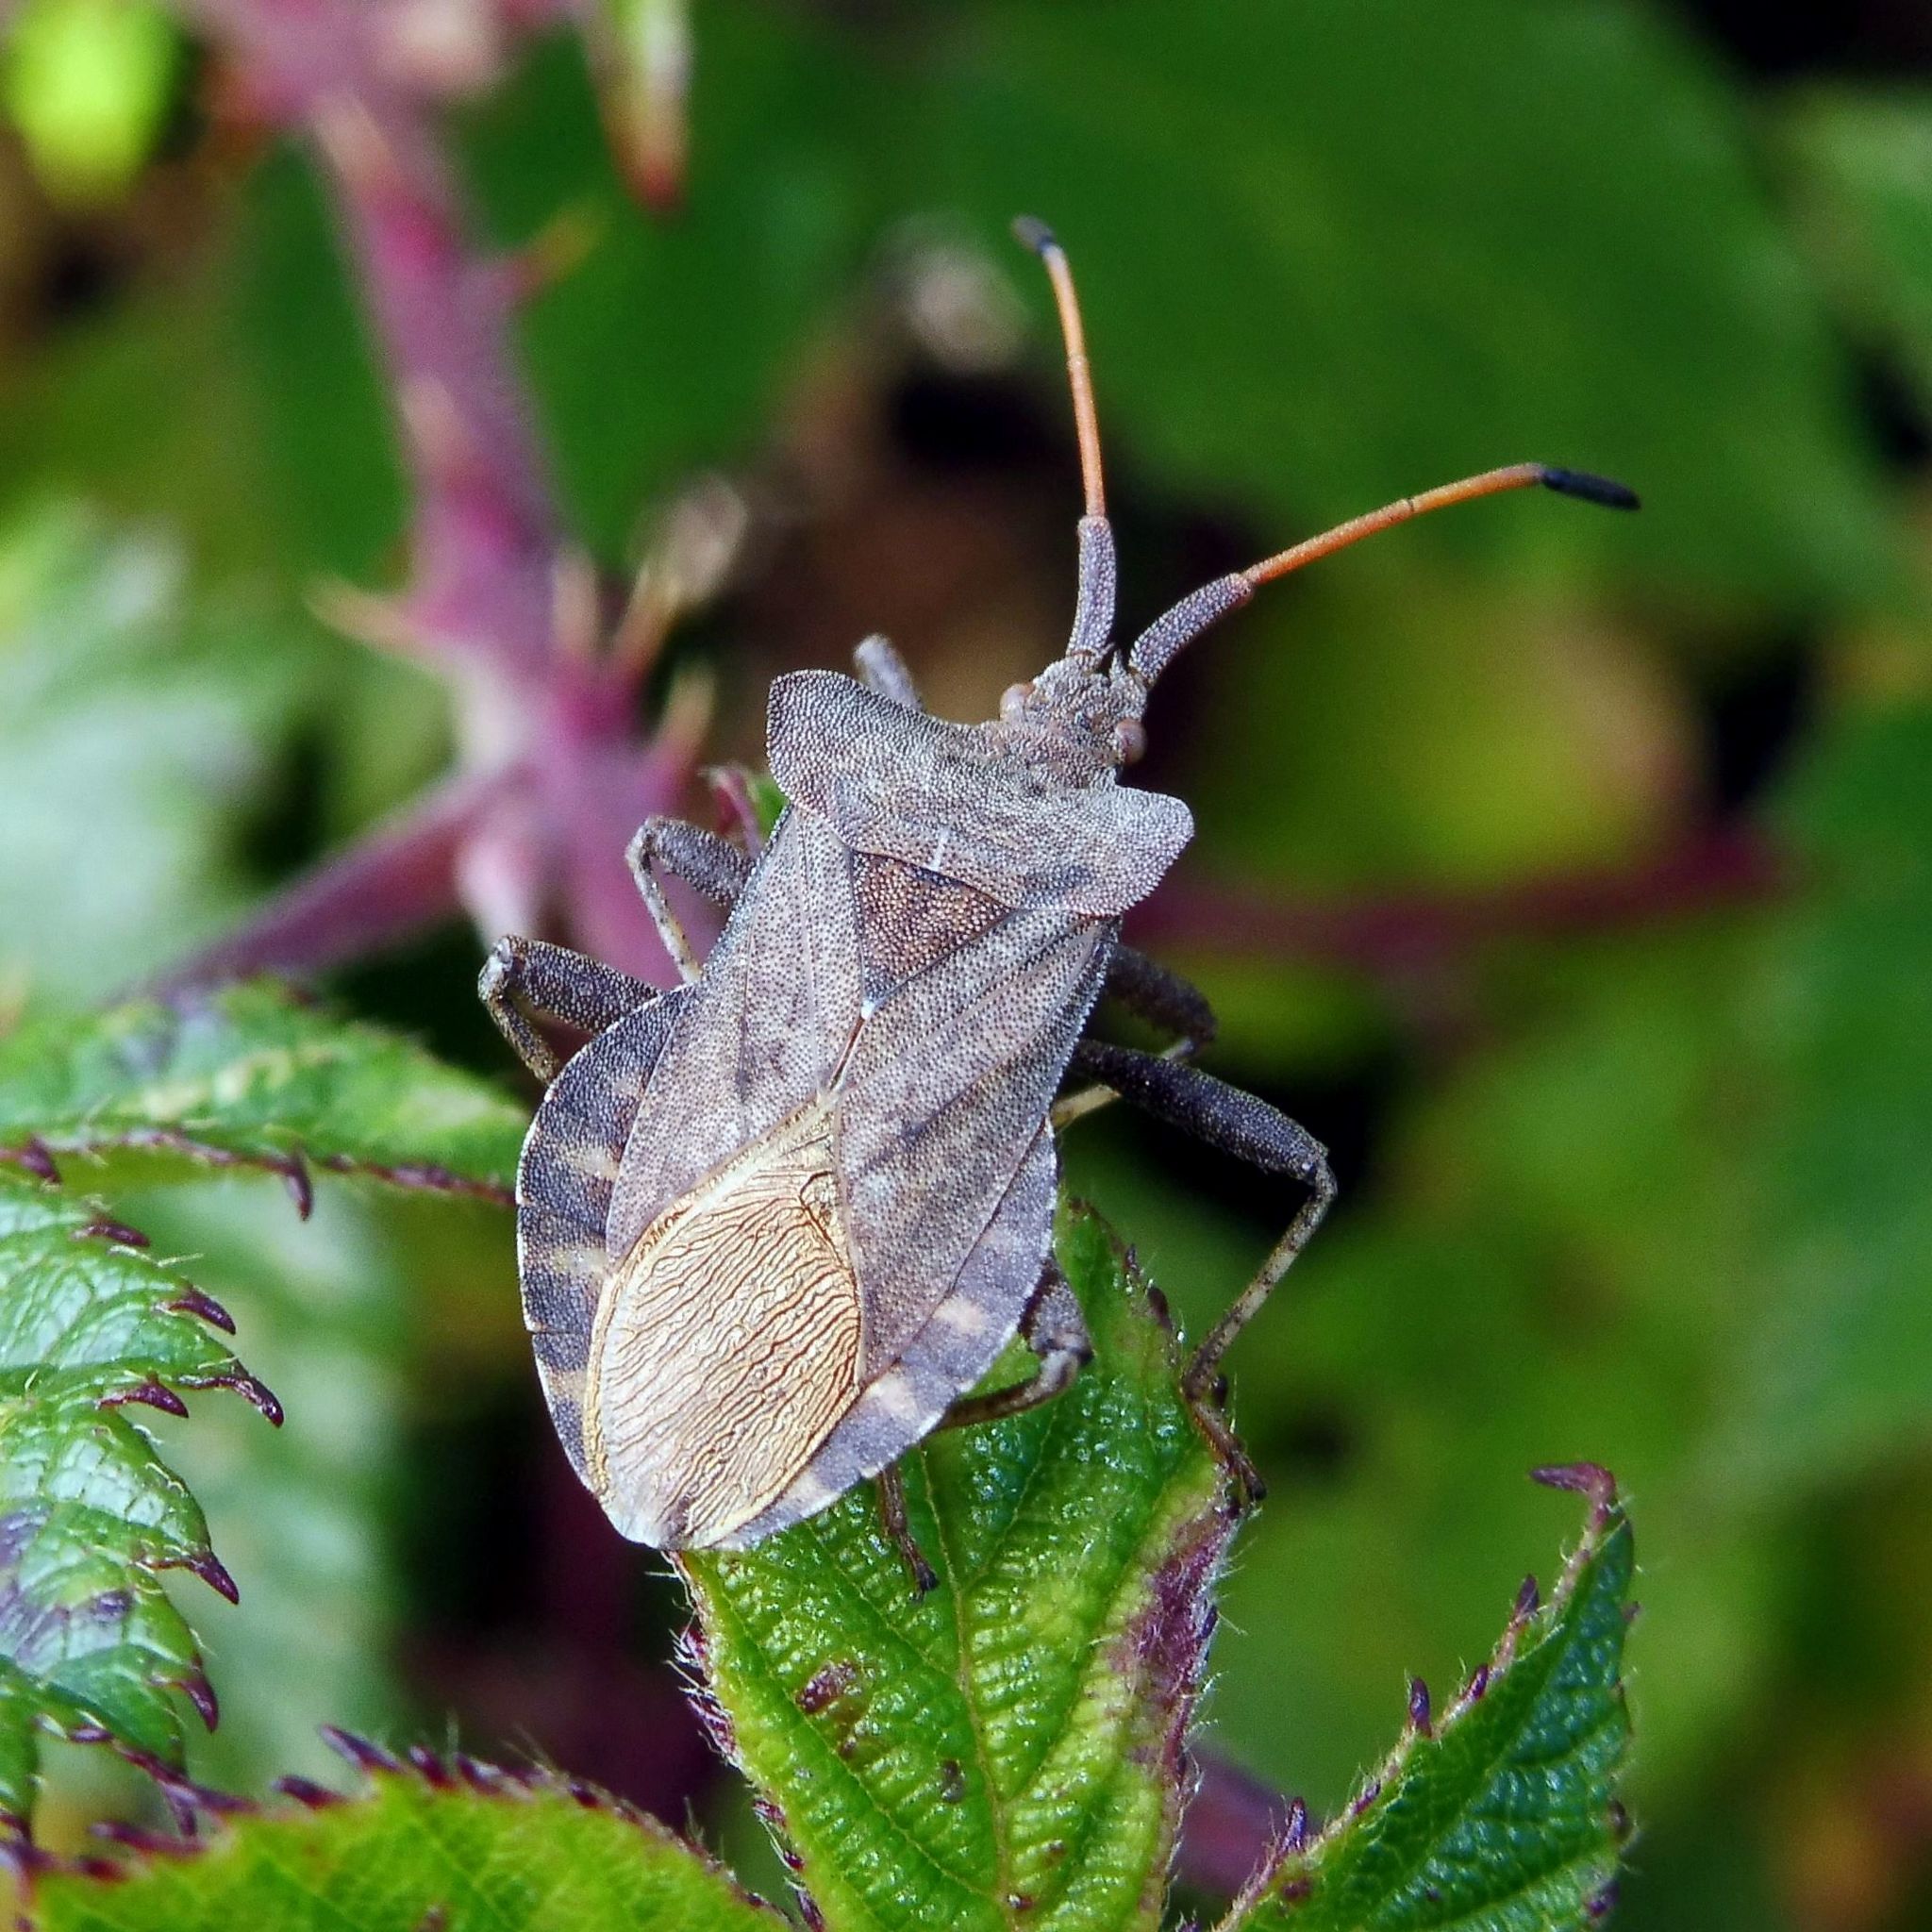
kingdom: Animalia
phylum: Arthropoda
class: Insecta
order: Hemiptera
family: Coreidae
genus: Coreus
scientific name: Coreus marginatus
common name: Dock bug
